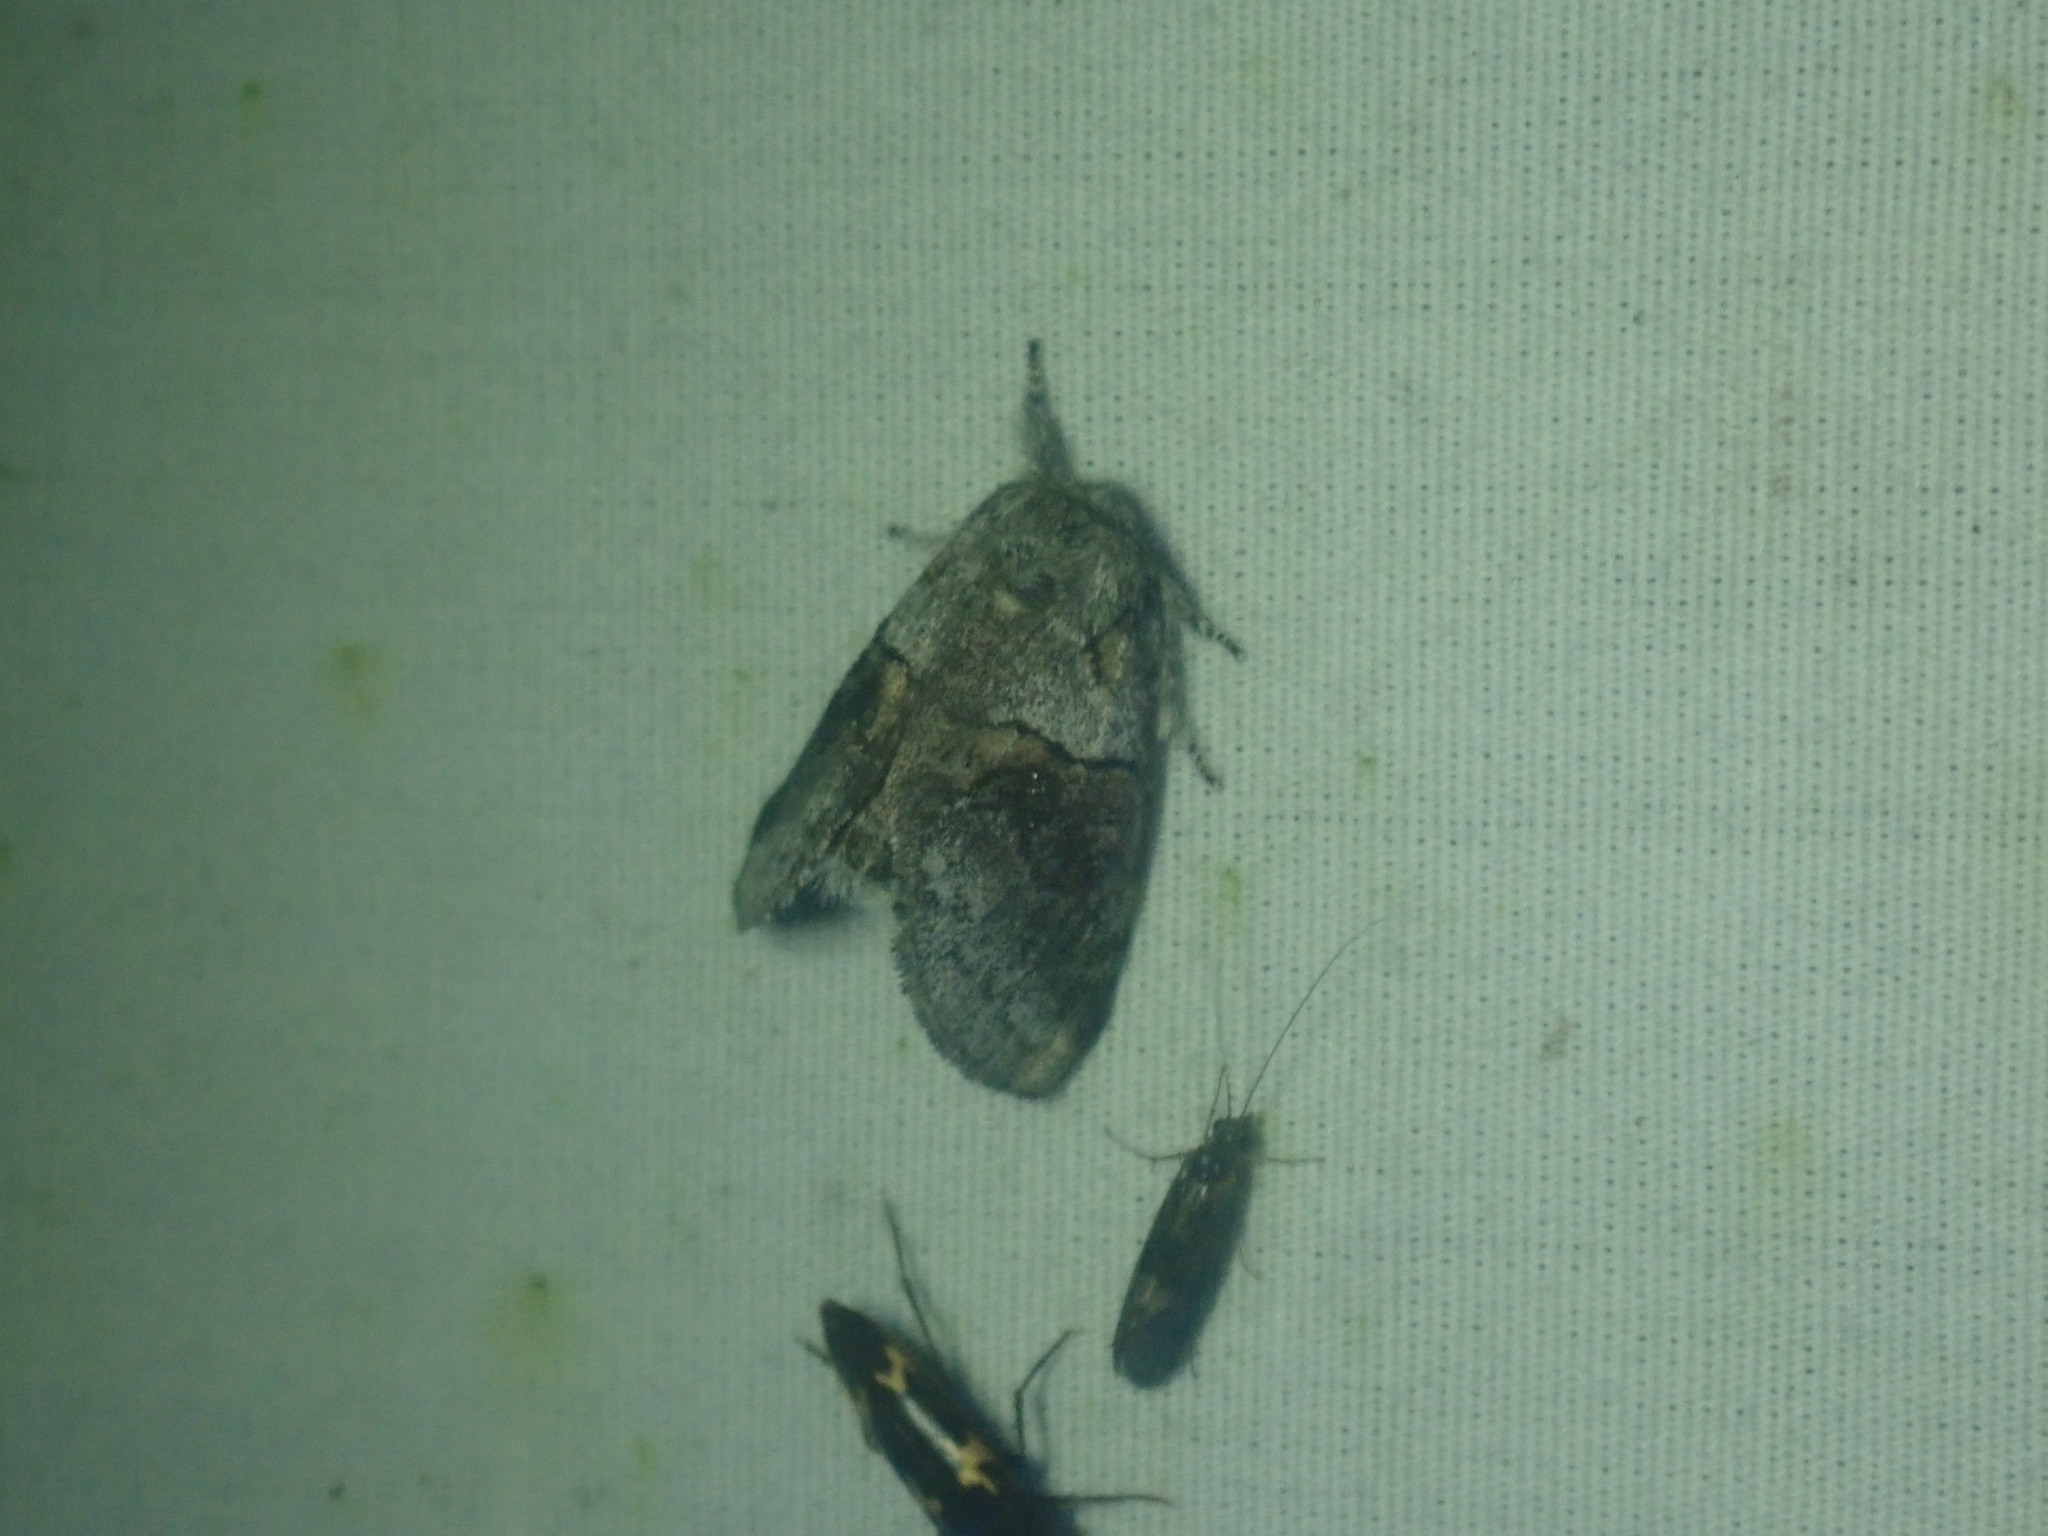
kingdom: Animalia
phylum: Arthropoda
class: Insecta
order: Lepidoptera
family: Notodontidae
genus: Gluphisia
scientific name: Gluphisia septentrionis
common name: Common gluphisia
